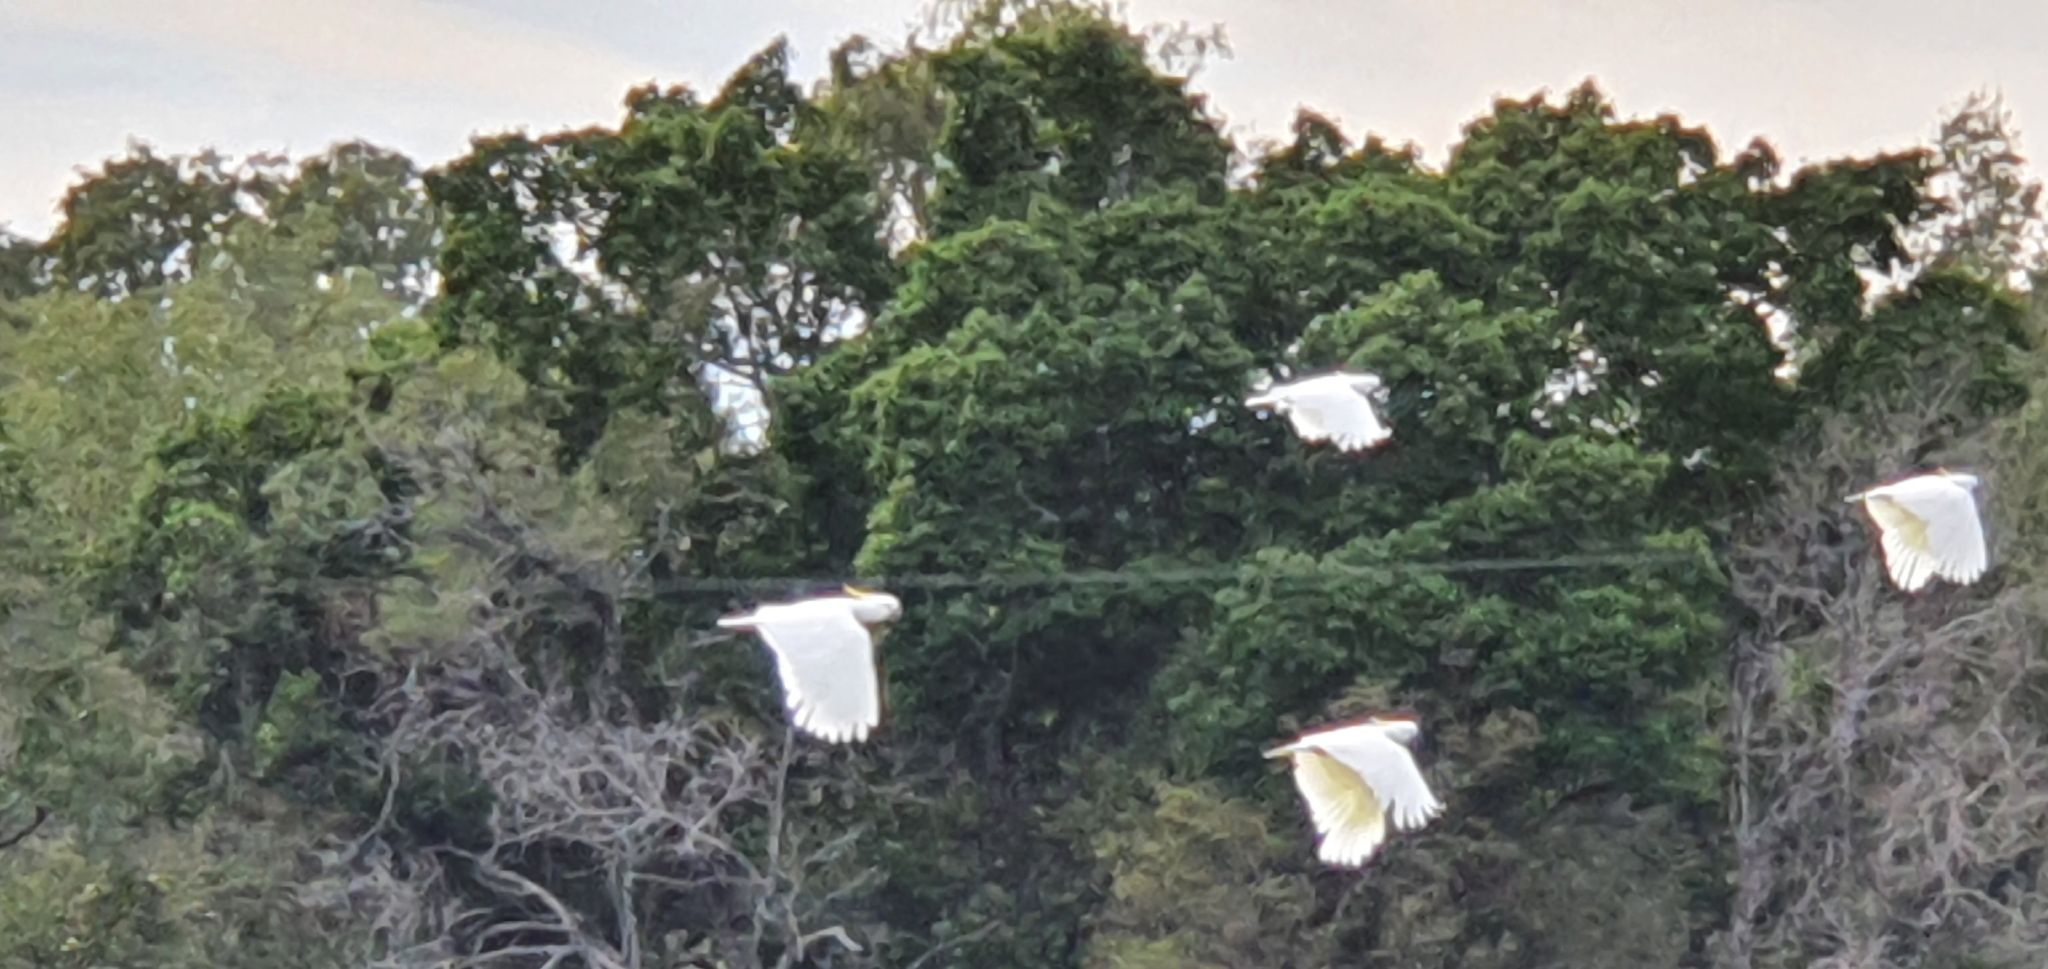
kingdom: Animalia
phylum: Chordata
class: Aves
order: Psittaciformes
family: Psittacidae
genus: Cacatua
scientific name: Cacatua galerita
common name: Sulphur-crested cockatoo
